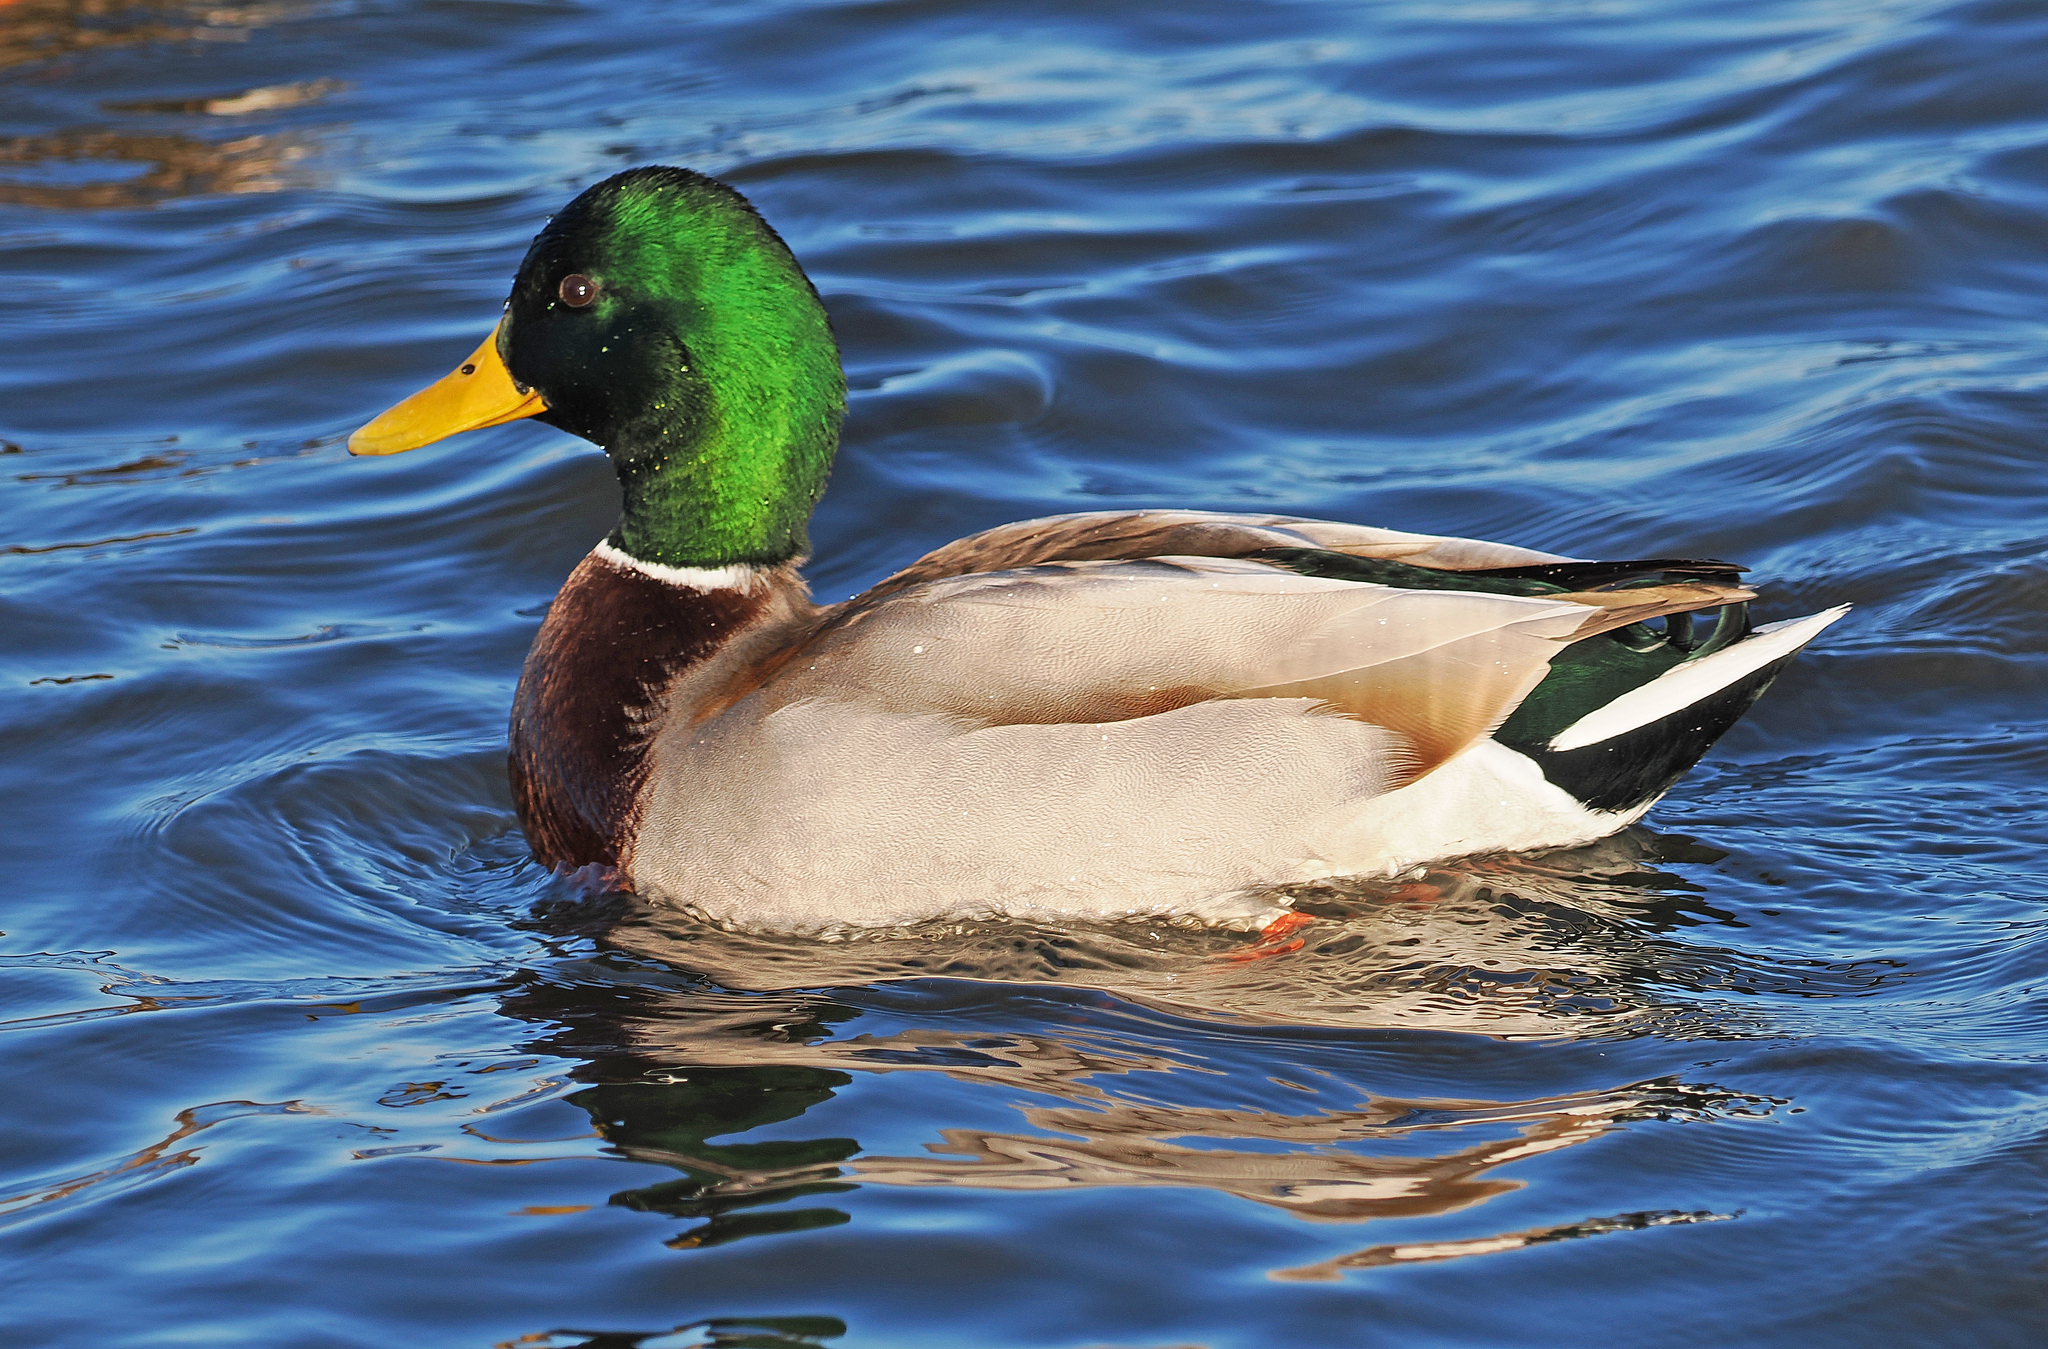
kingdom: Animalia
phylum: Chordata
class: Aves
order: Anseriformes
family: Anatidae
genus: Anas
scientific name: Anas platyrhynchos
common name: Mallard
